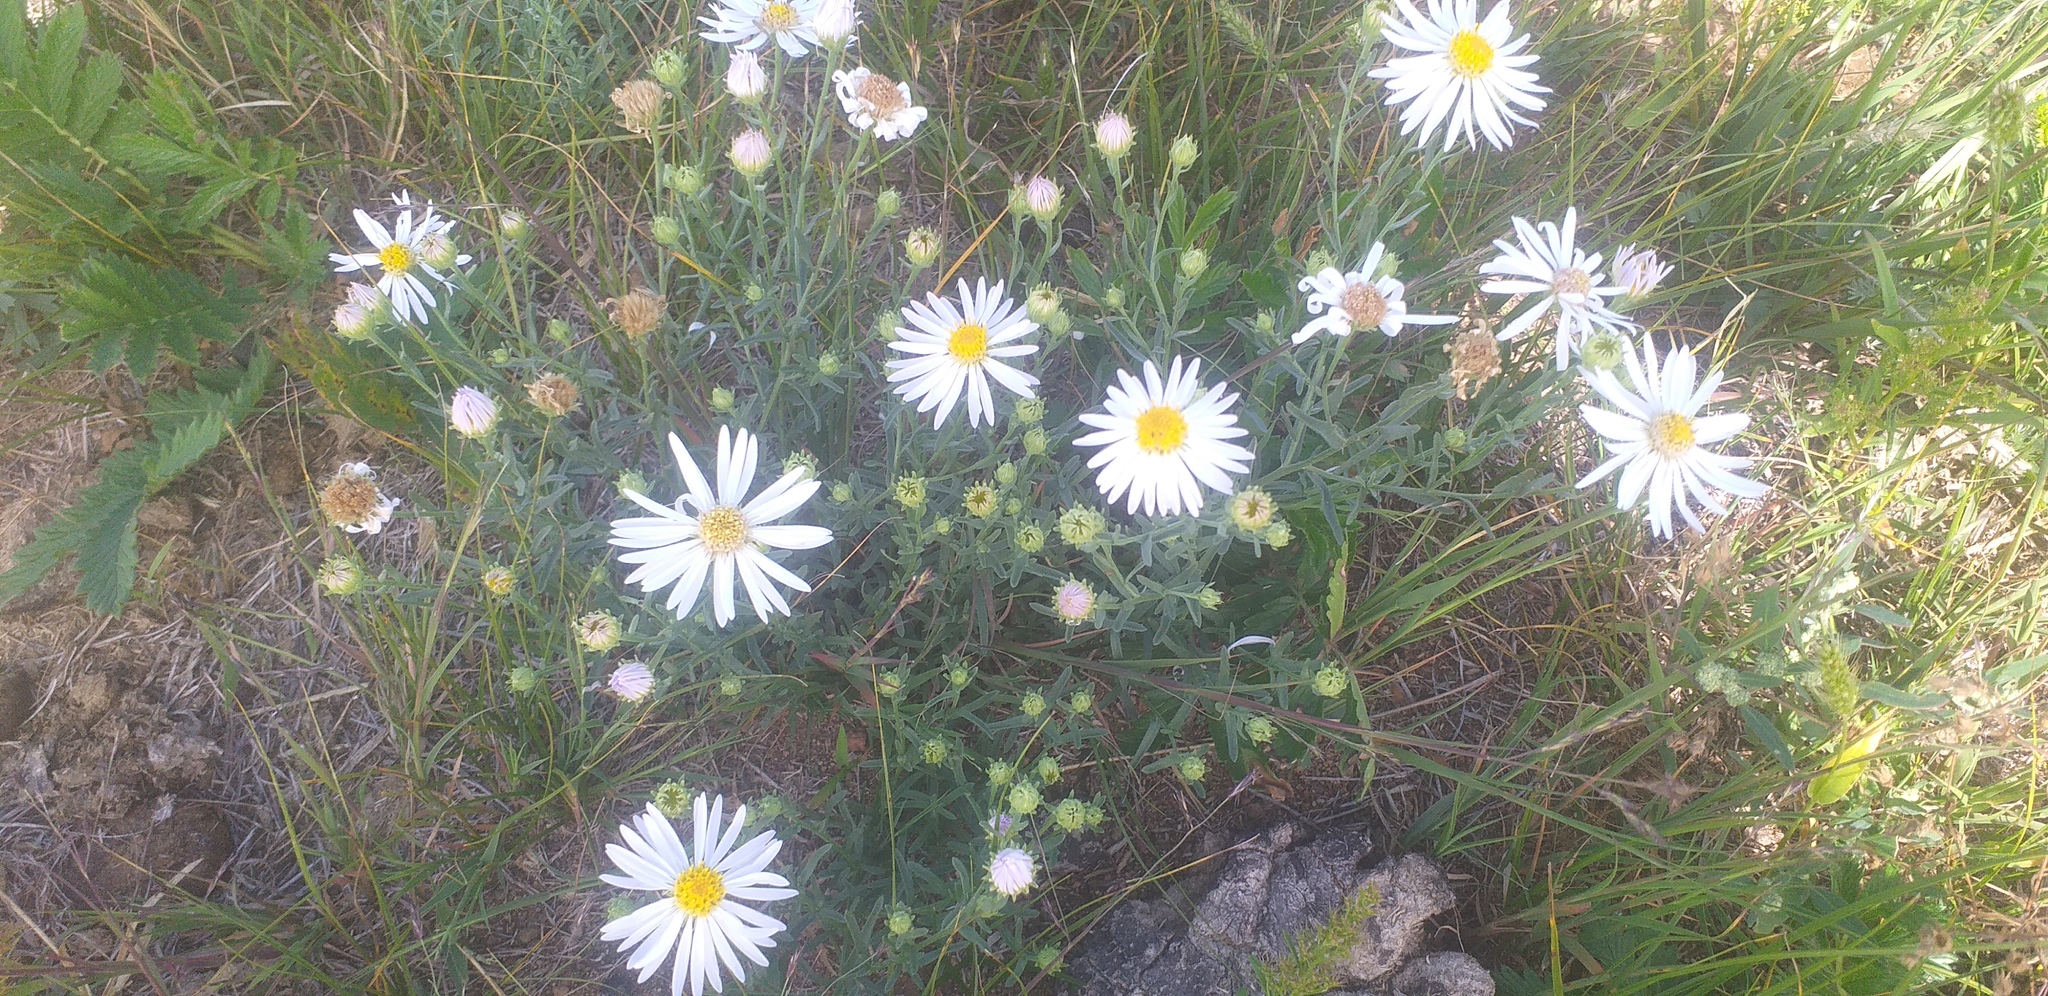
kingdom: Plantae
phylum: Tracheophyta
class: Magnoliopsida
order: Asterales
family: Asteraceae
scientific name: Asteraceae
